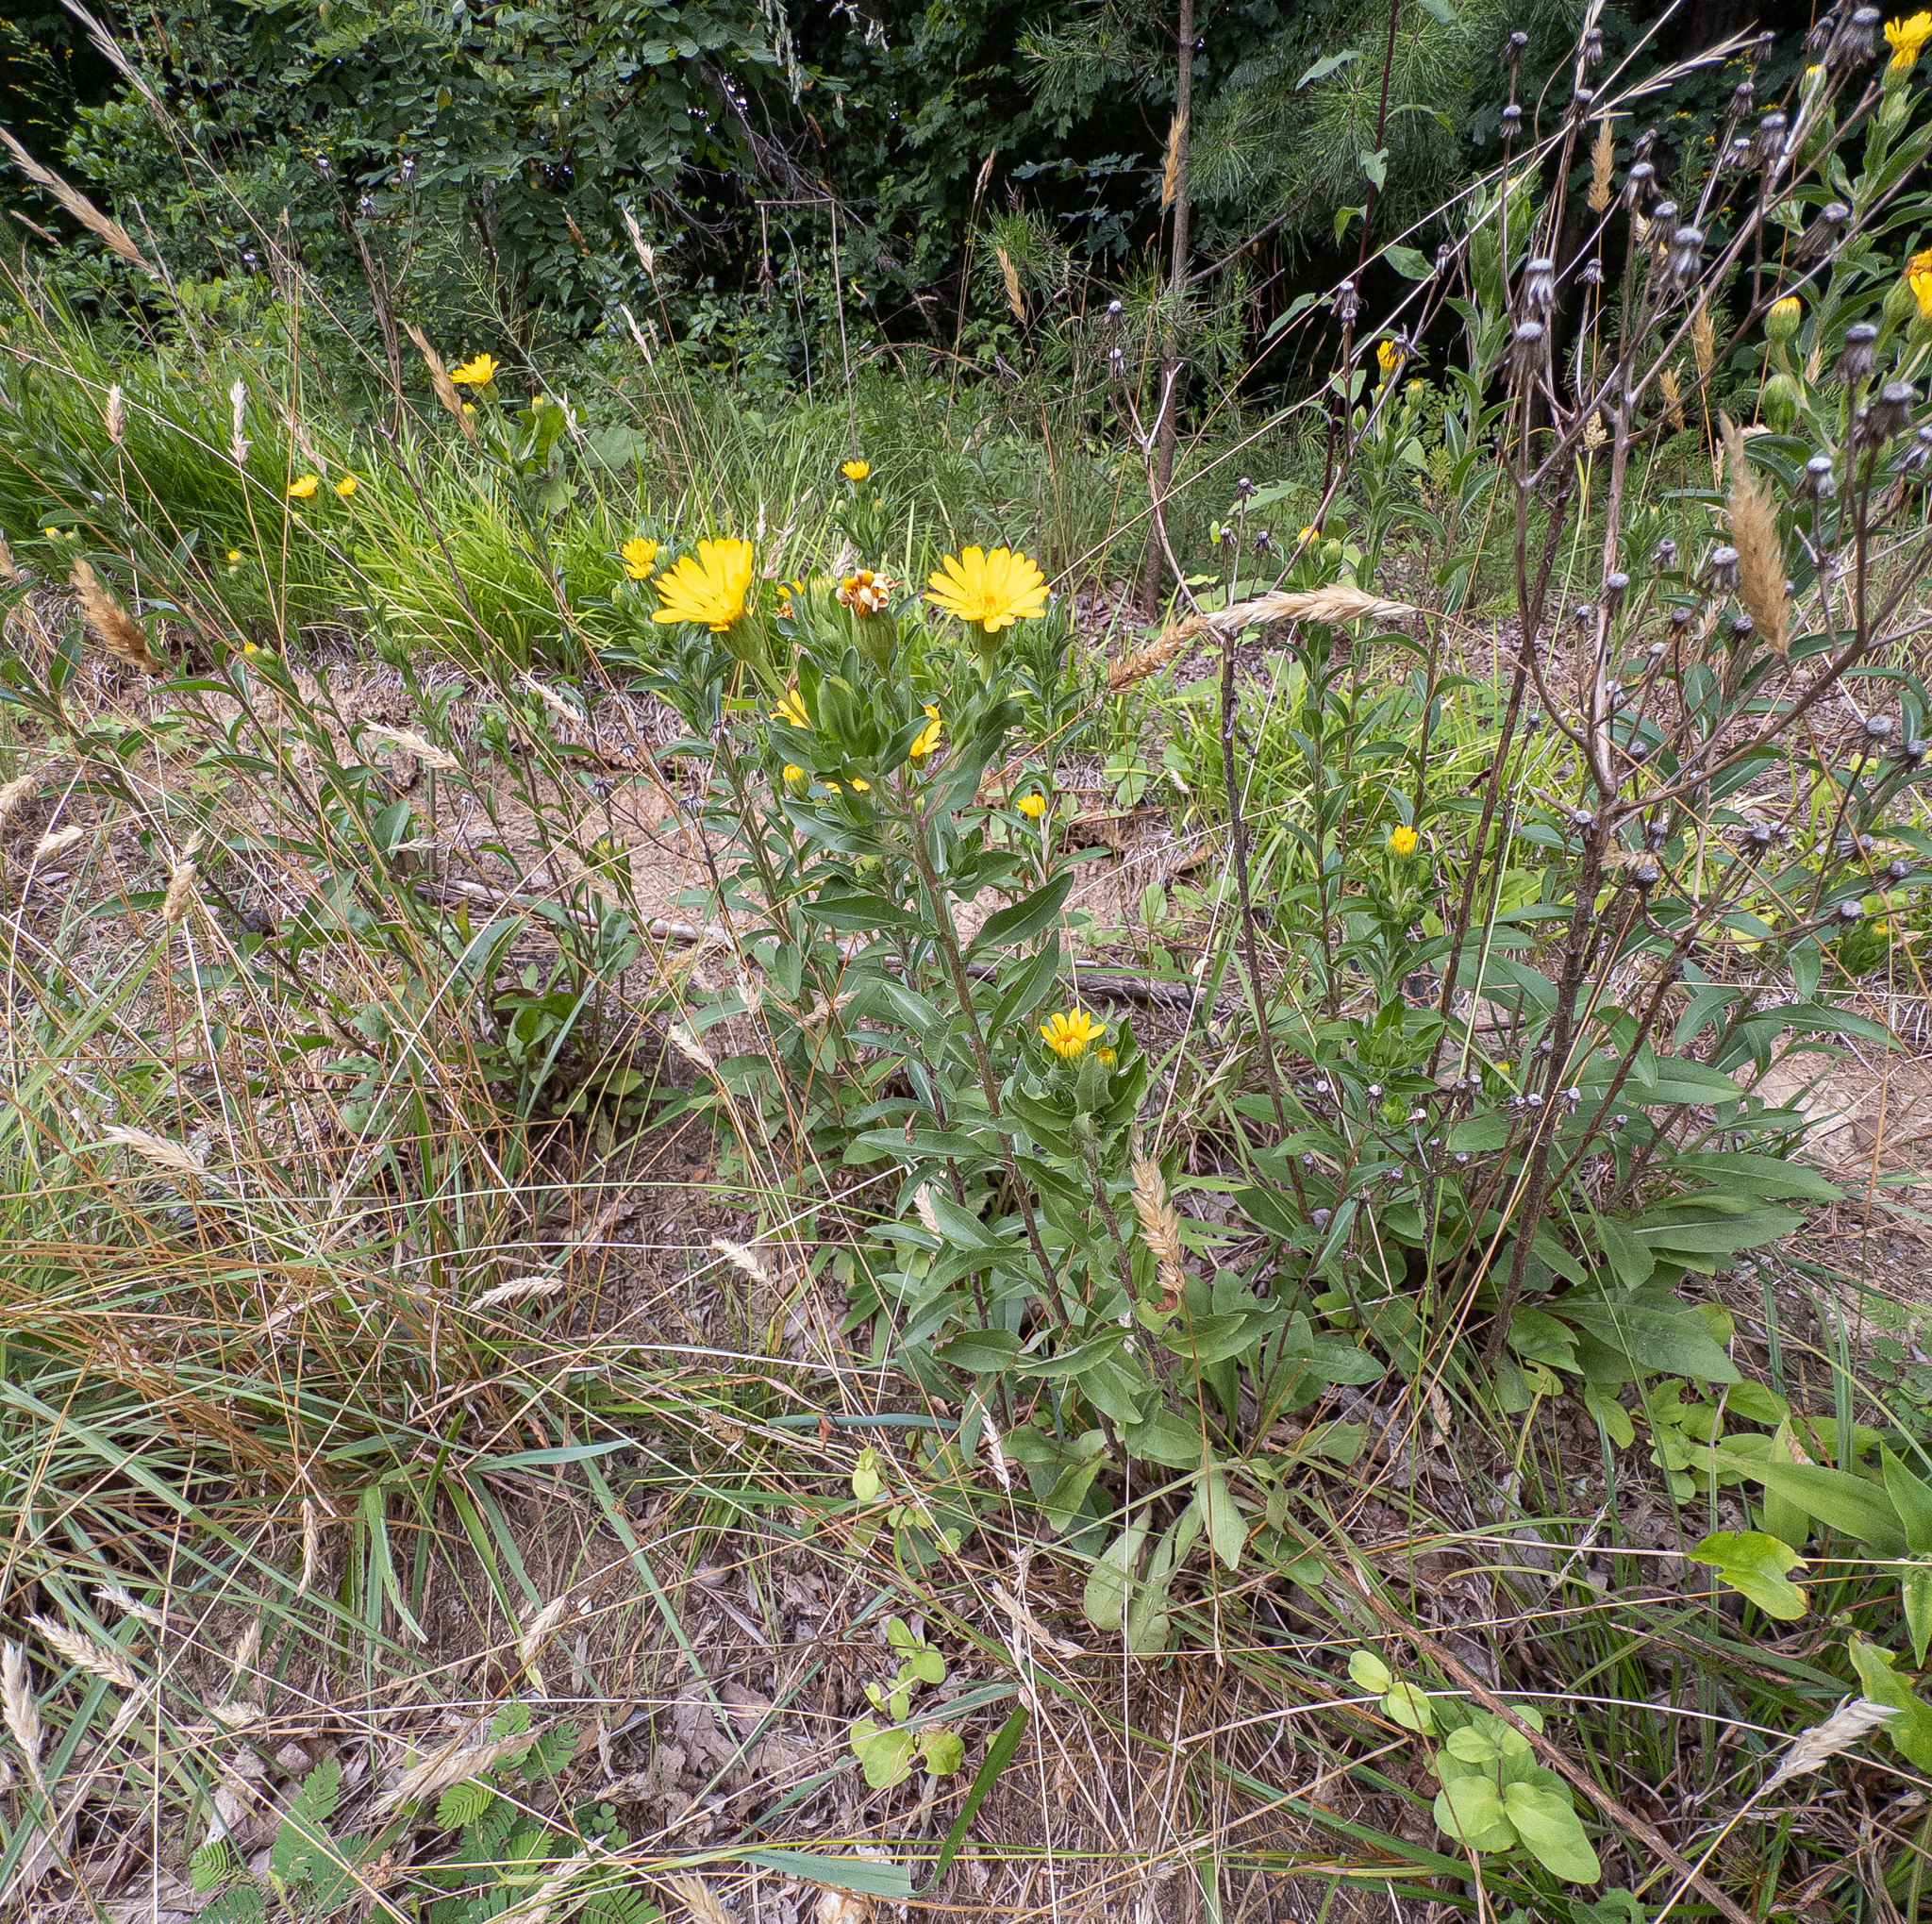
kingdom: Plantae
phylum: Tracheophyta
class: Magnoliopsida
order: Asterales
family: Asteraceae
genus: Chrysopsis
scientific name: Chrysopsis mariana
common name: Maryland golden-aster
